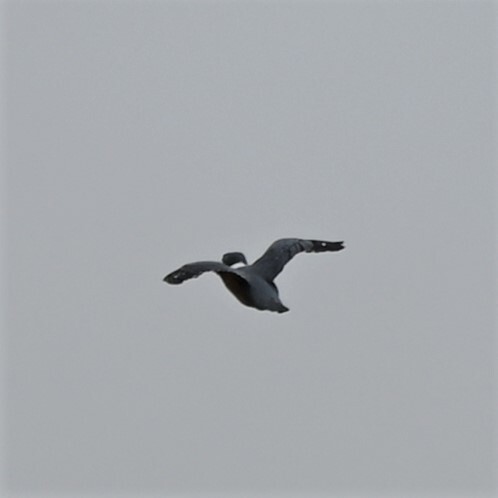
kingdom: Animalia
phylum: Chordata
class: Aves
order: Coraciiformes
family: Alcedinidae
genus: Megaceryle
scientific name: Megaceryle torquata
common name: Ringed kingfisher
